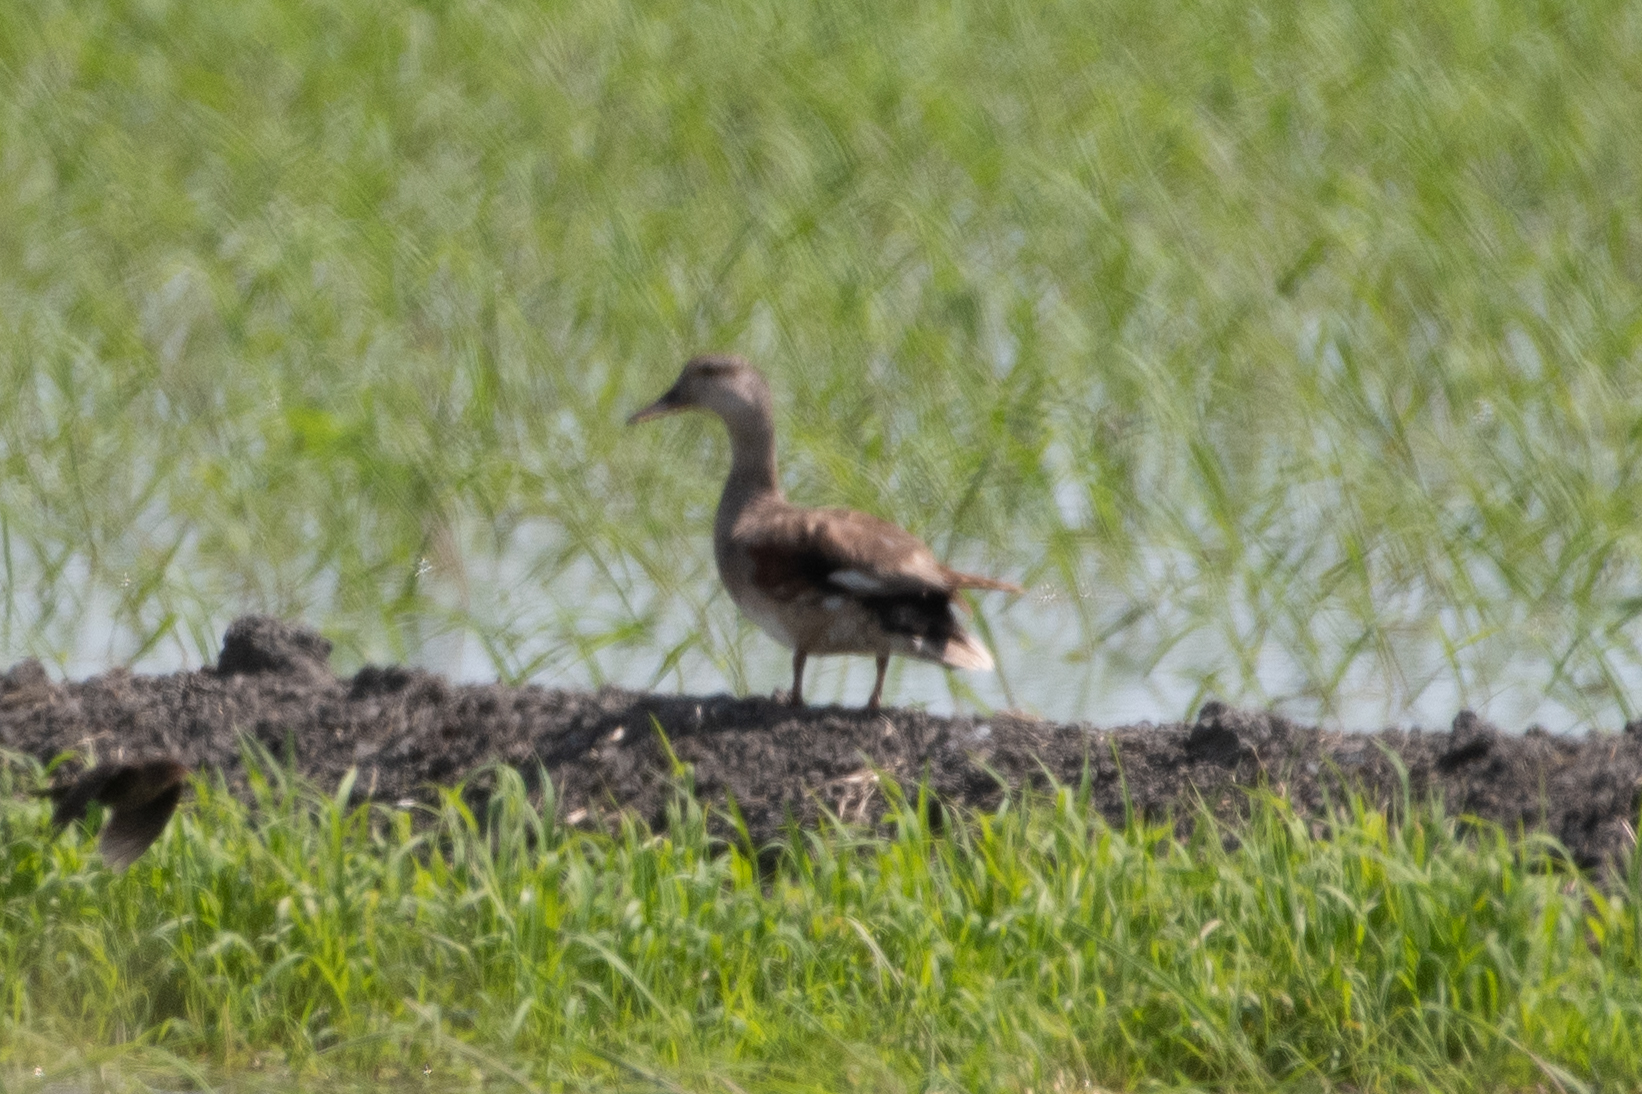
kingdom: Animalia
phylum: Chordata
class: Aves
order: Anseriformes
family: Anatidae
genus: Mareca
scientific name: Mareca strepera
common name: Gadwall
